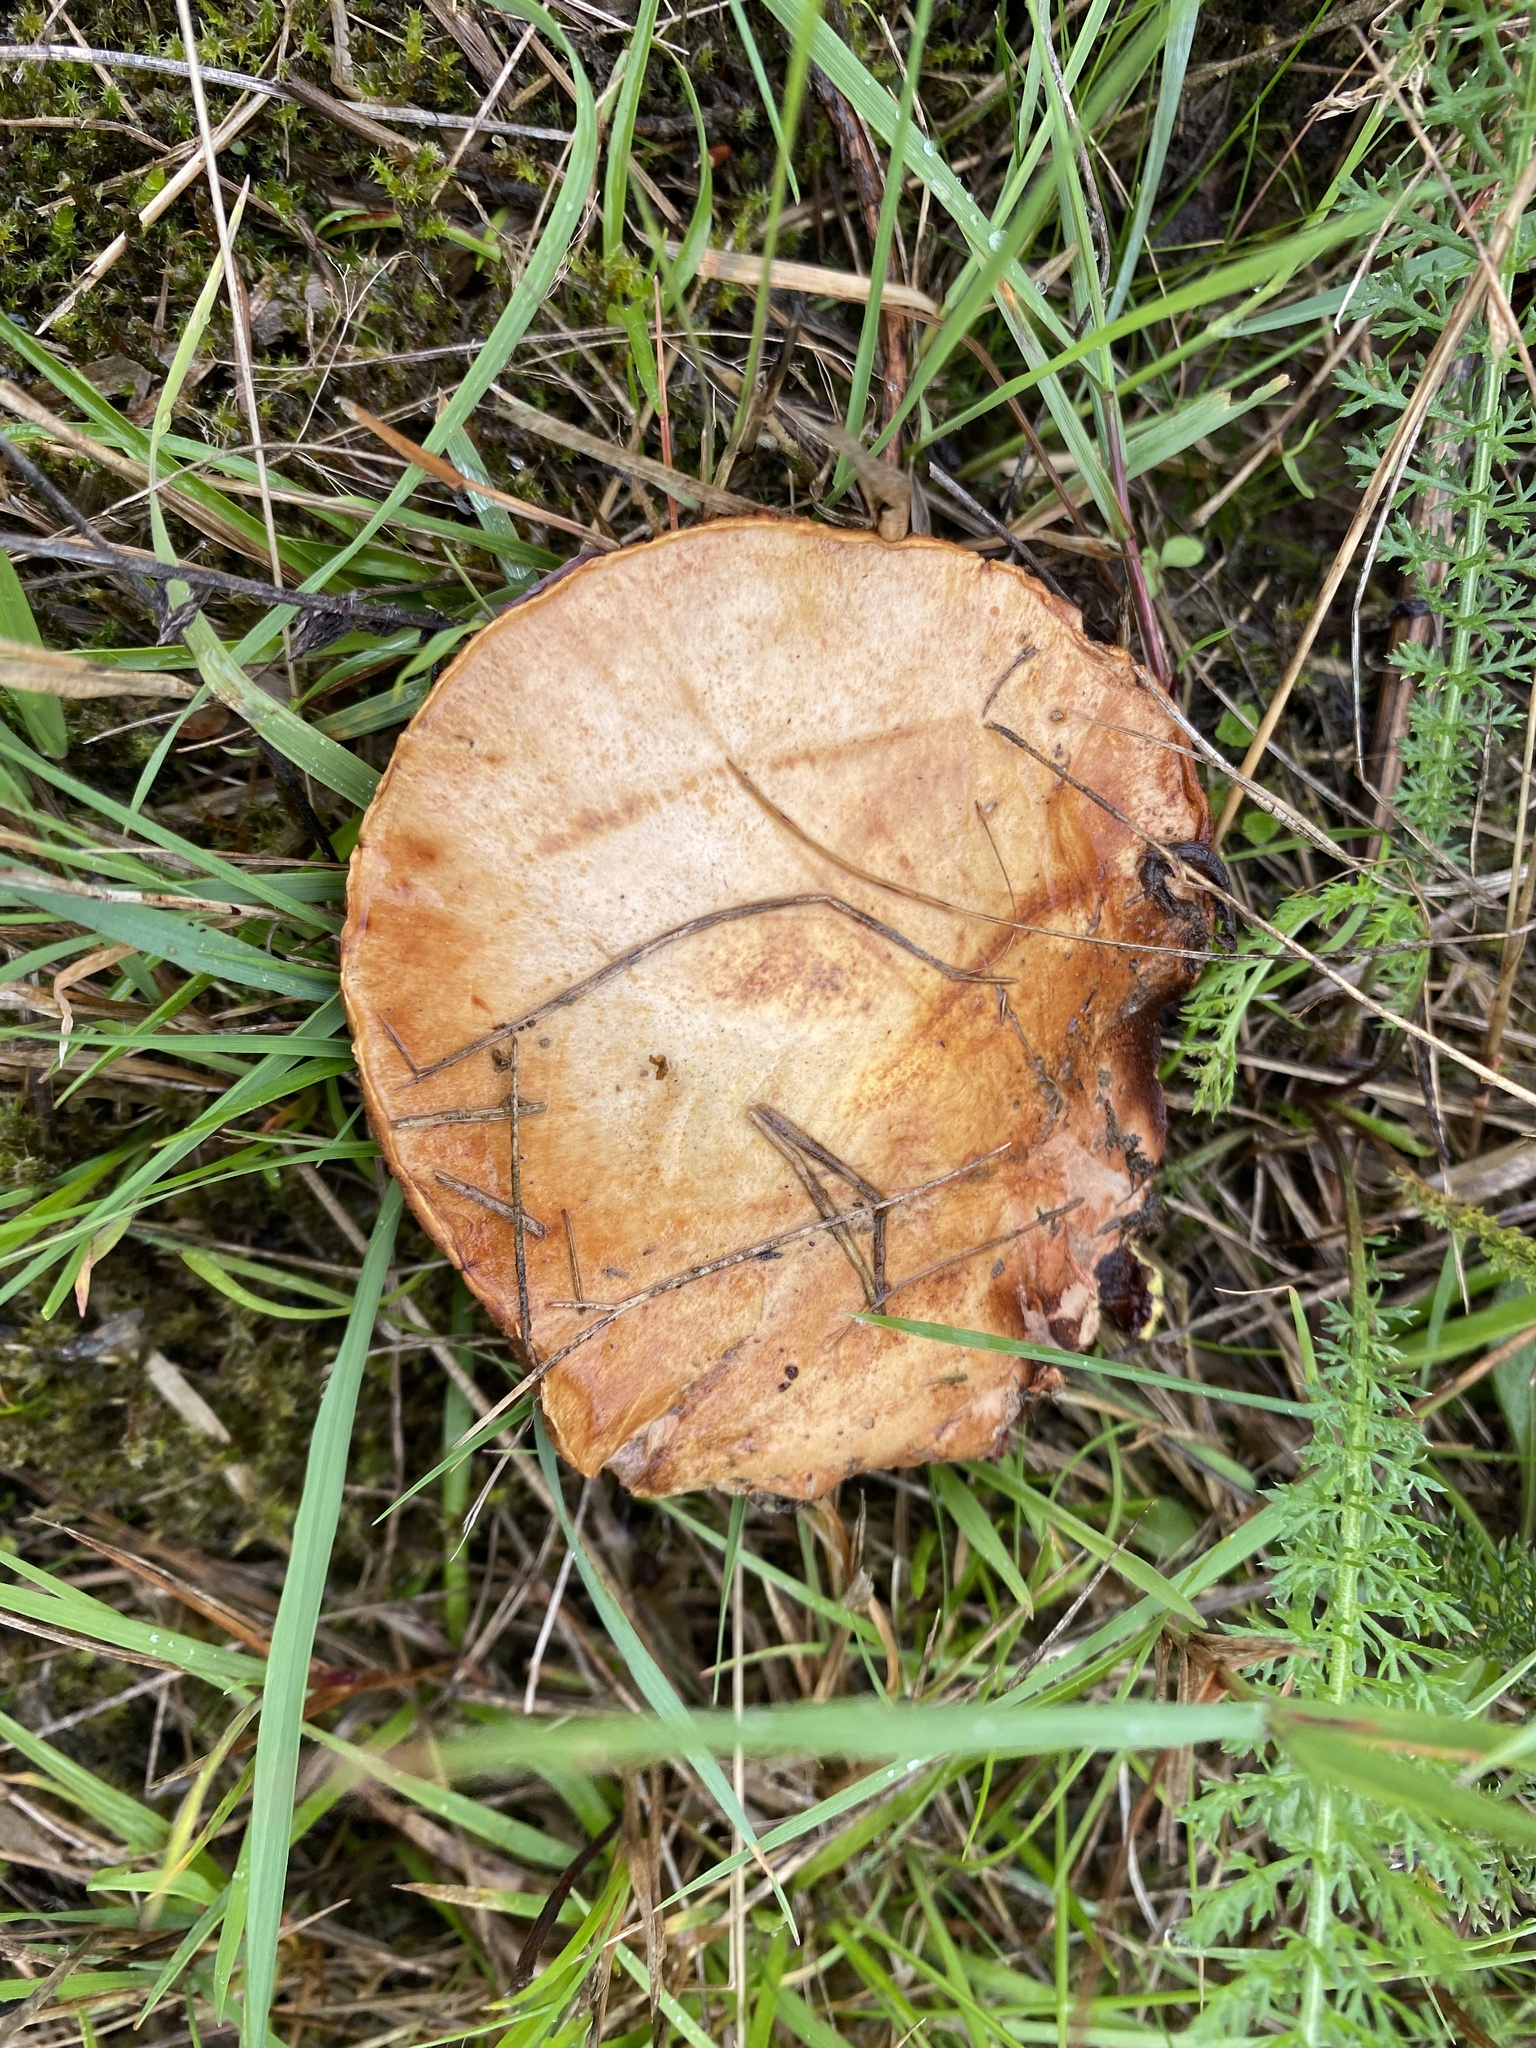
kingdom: Fungi
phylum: Basidiomycota
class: Agaricomycetes
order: Boletales
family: Boletaceae
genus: Chalciporus
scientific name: Chalciporus piperatus
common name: Peppery bolete
